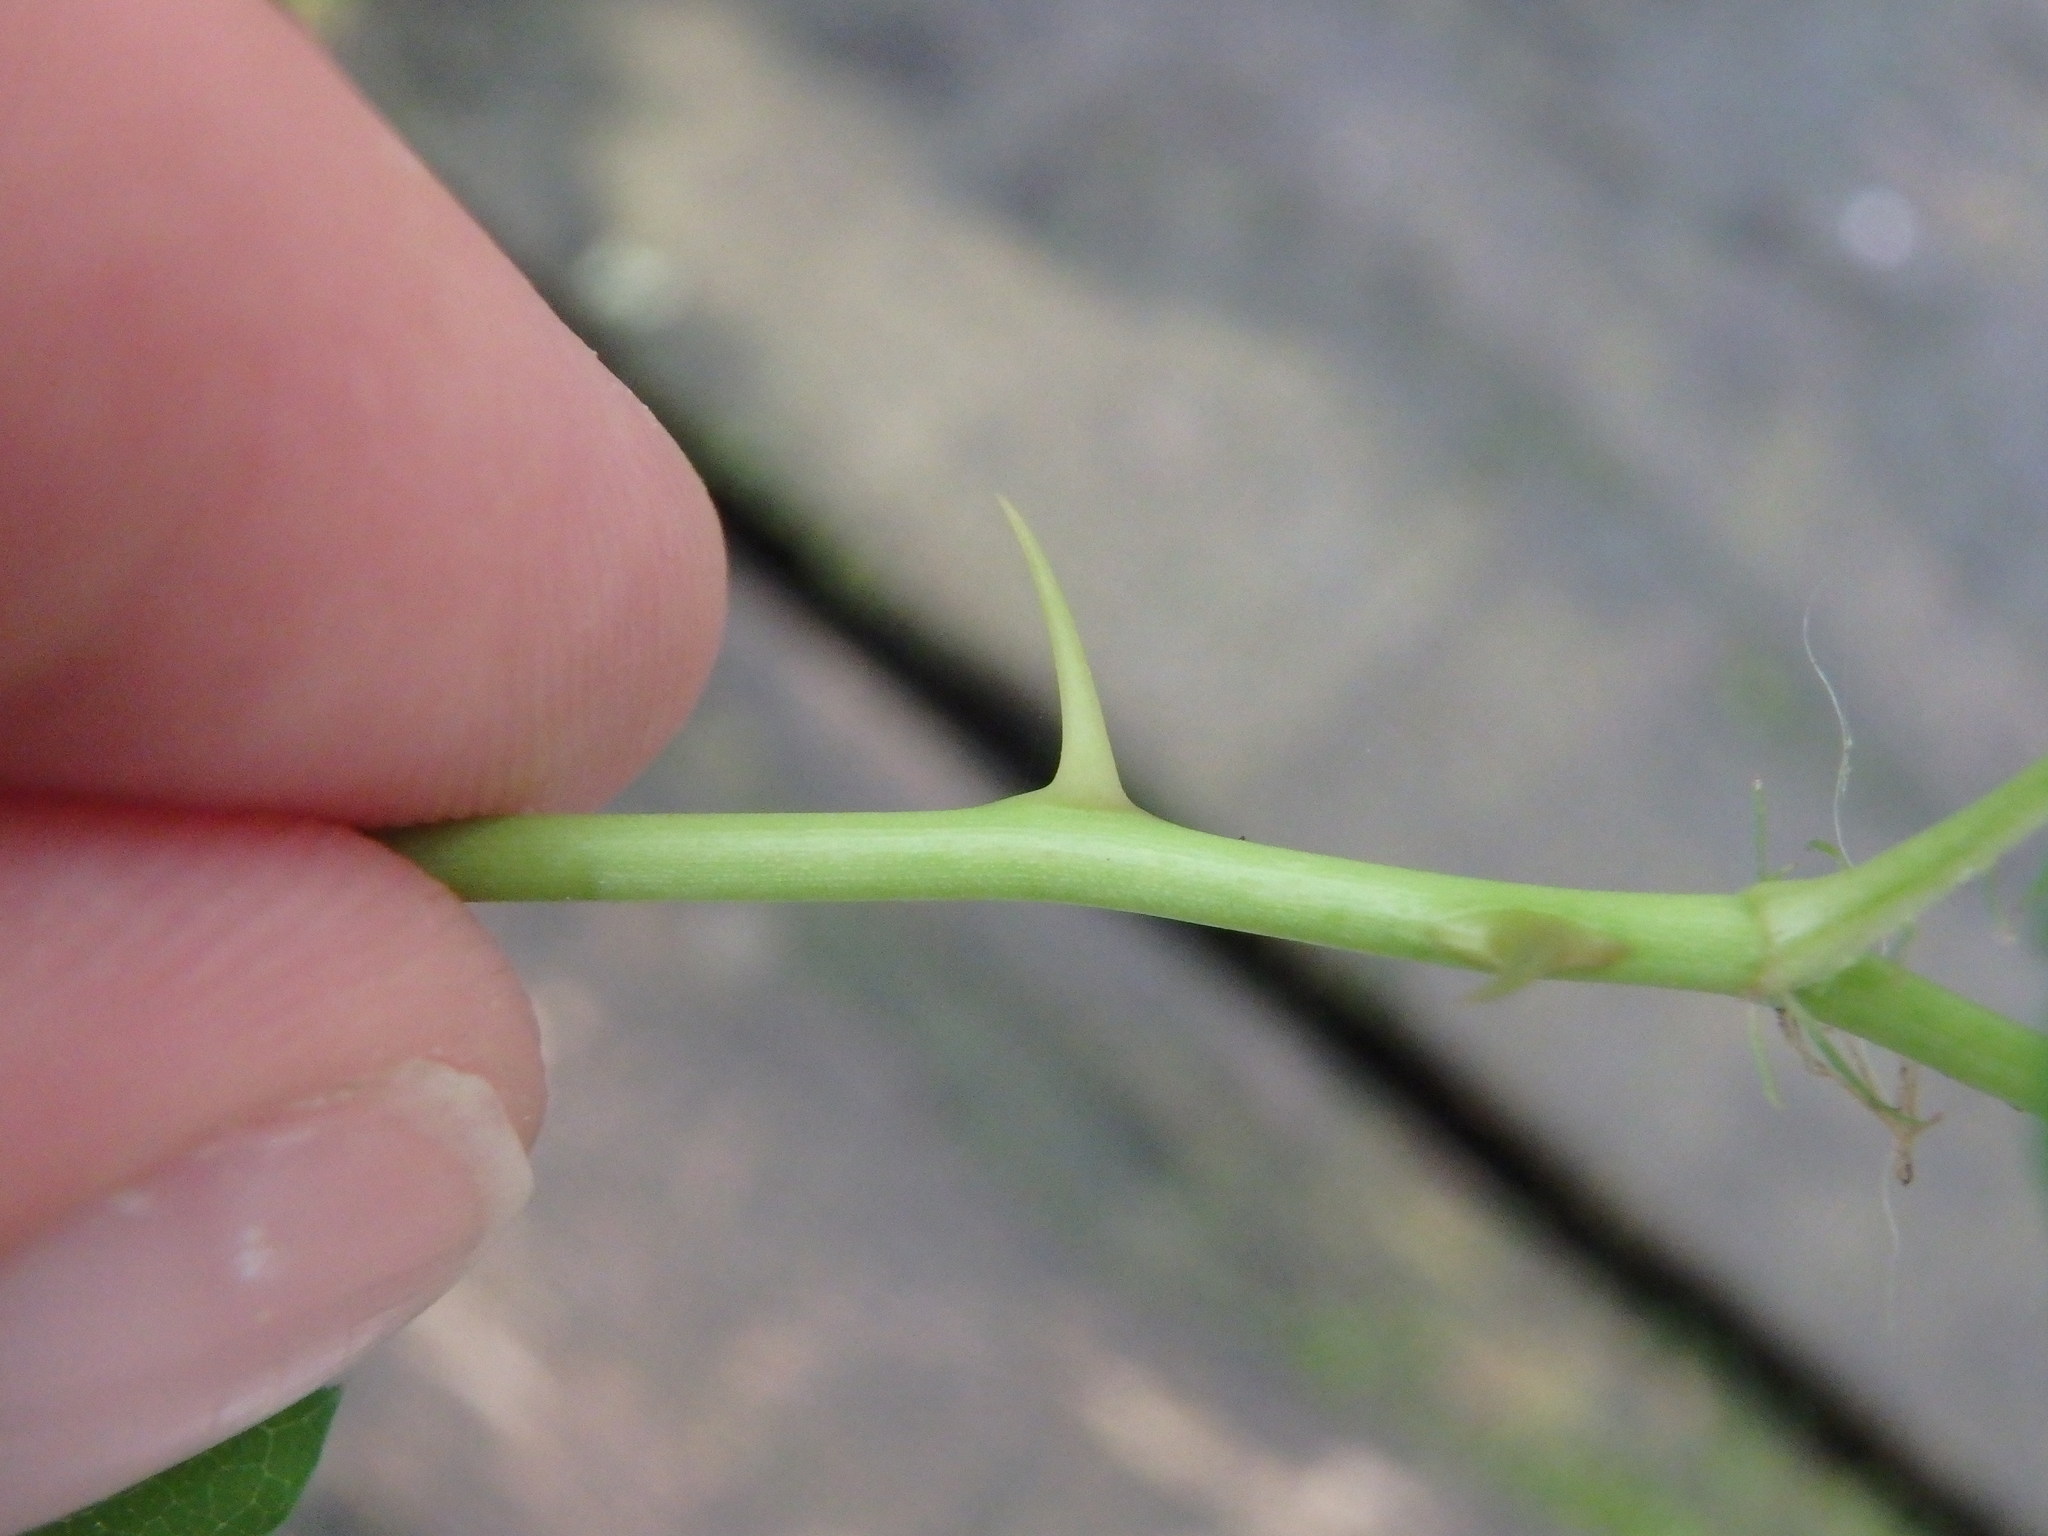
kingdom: Plantae
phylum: Tracheophyta
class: Magnoliopsida
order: Rosales
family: Rosaceae
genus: Rosa
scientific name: Rosa multiflora
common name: Multiflora rose
